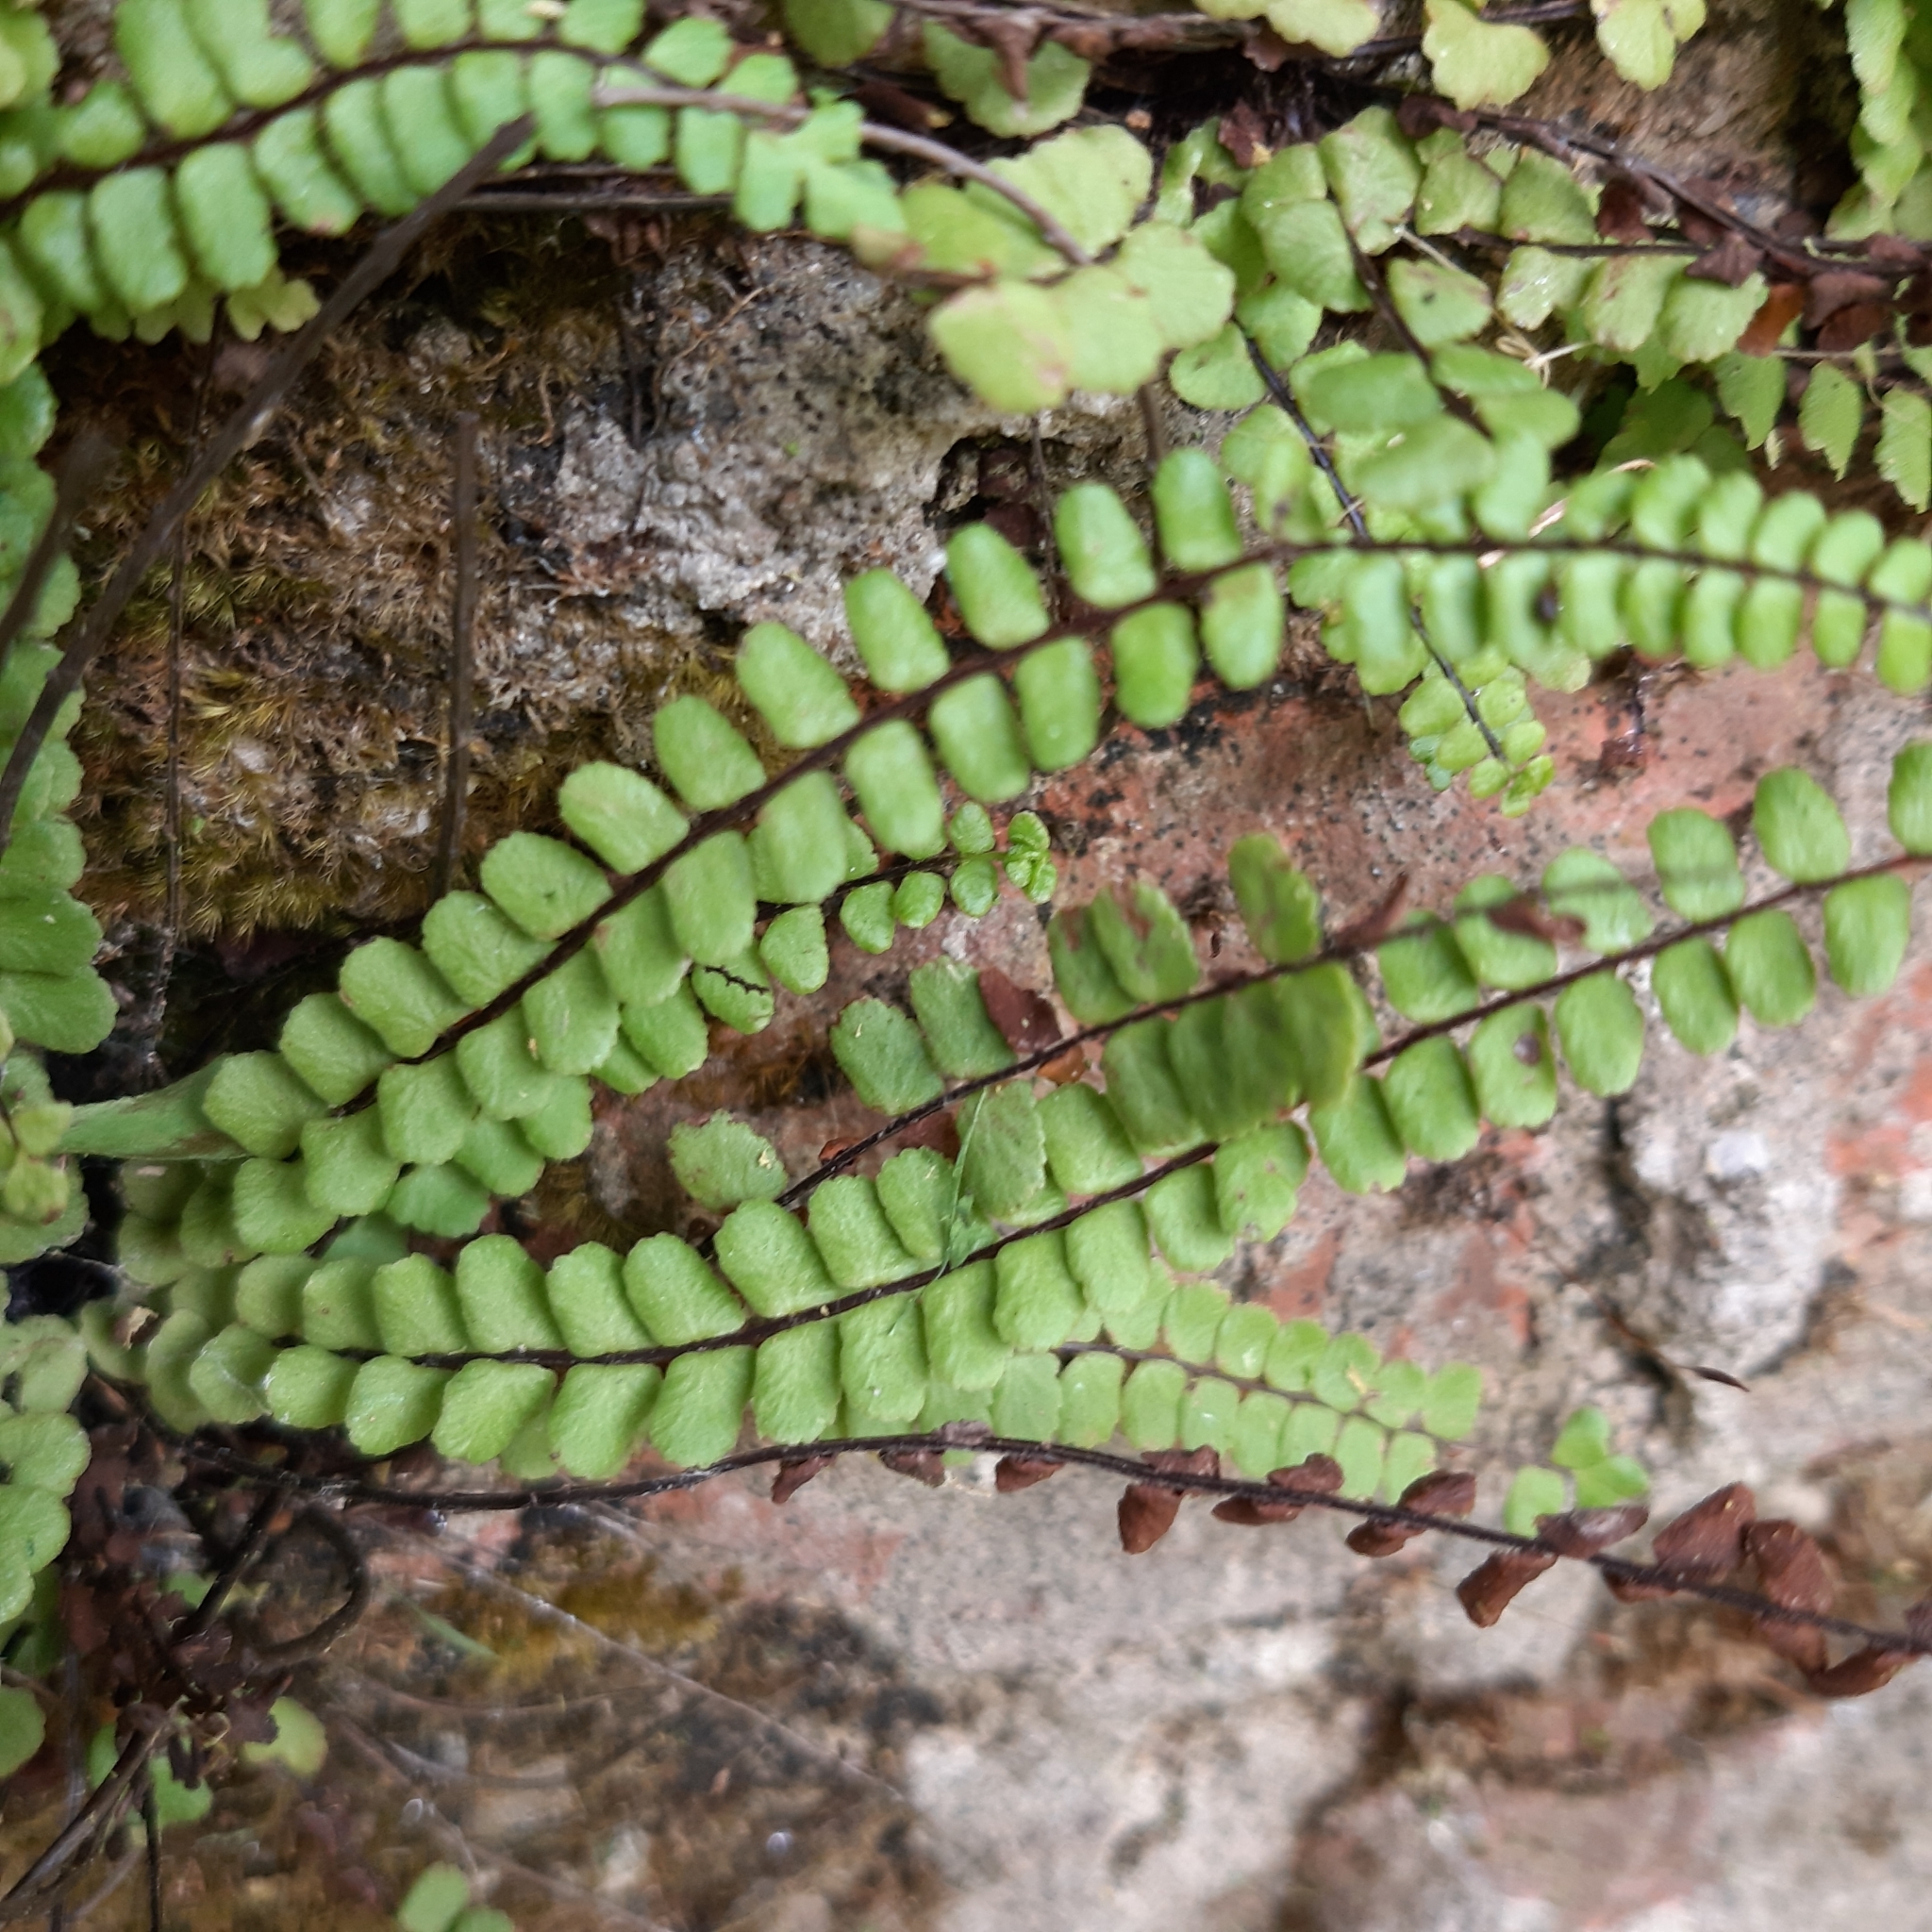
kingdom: Plantae
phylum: Tracheophyta
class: Polypodiopsida
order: Polypodiales
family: Aspleniaceae
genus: Asplenium
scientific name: Asplenium trichomanes
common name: Maidenhair spleenwort
